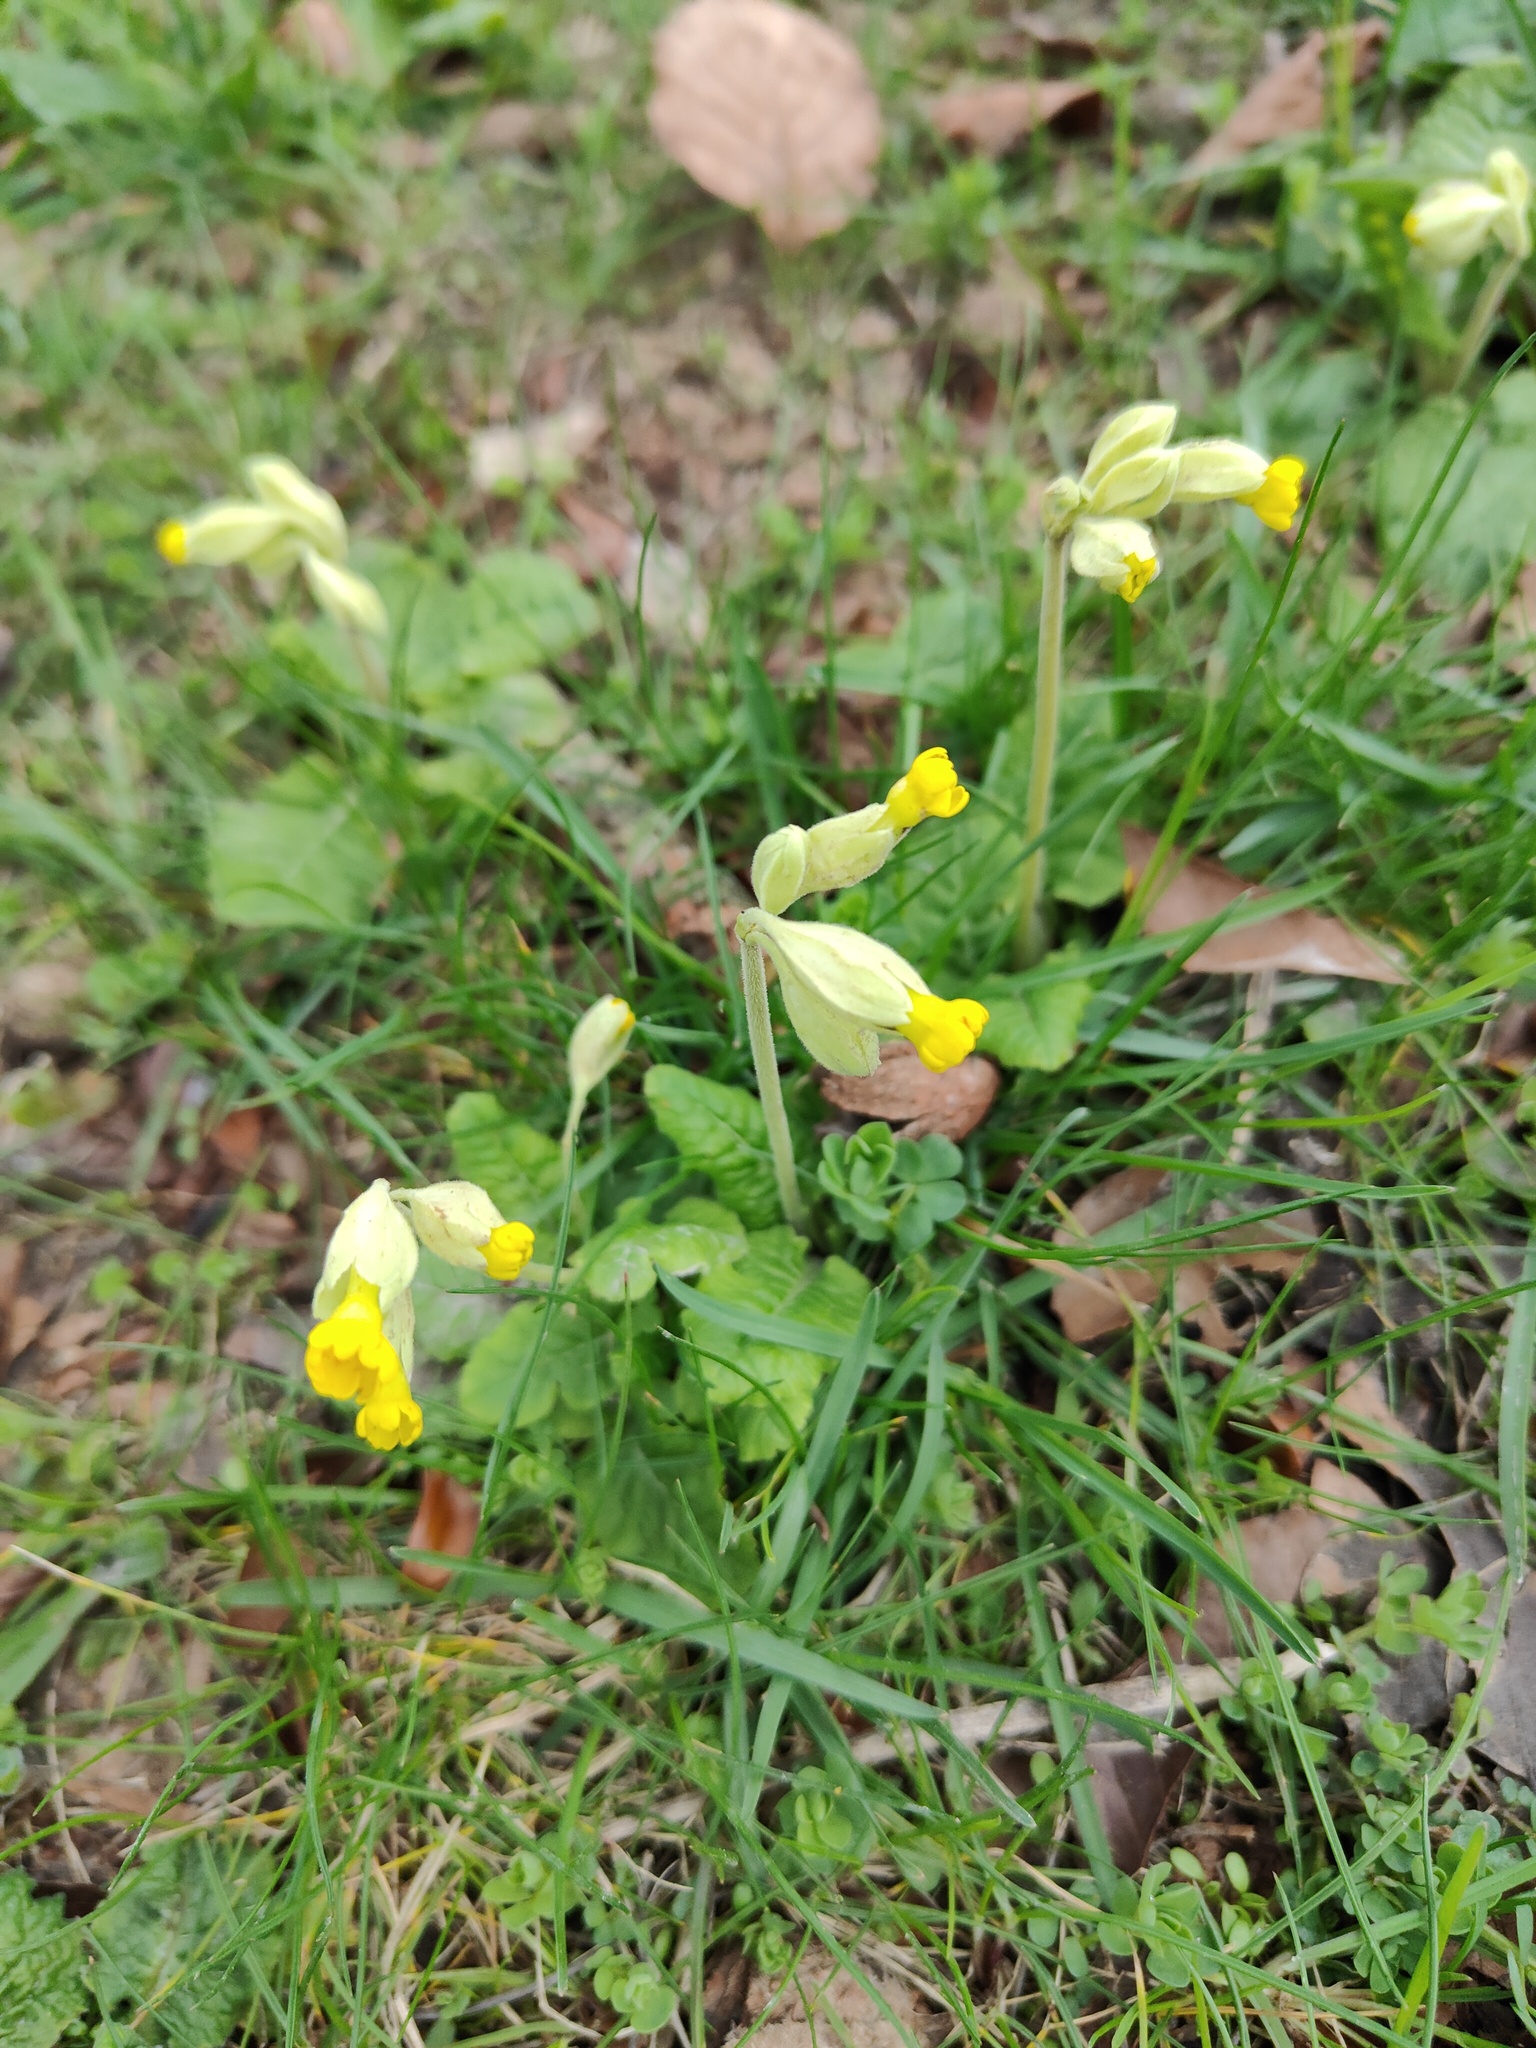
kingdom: Plantae
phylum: Tracheophyta
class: Magnoliopsida
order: Ericales
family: Primulaceae
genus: Primula
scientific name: Primula veris
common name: Cowslip
